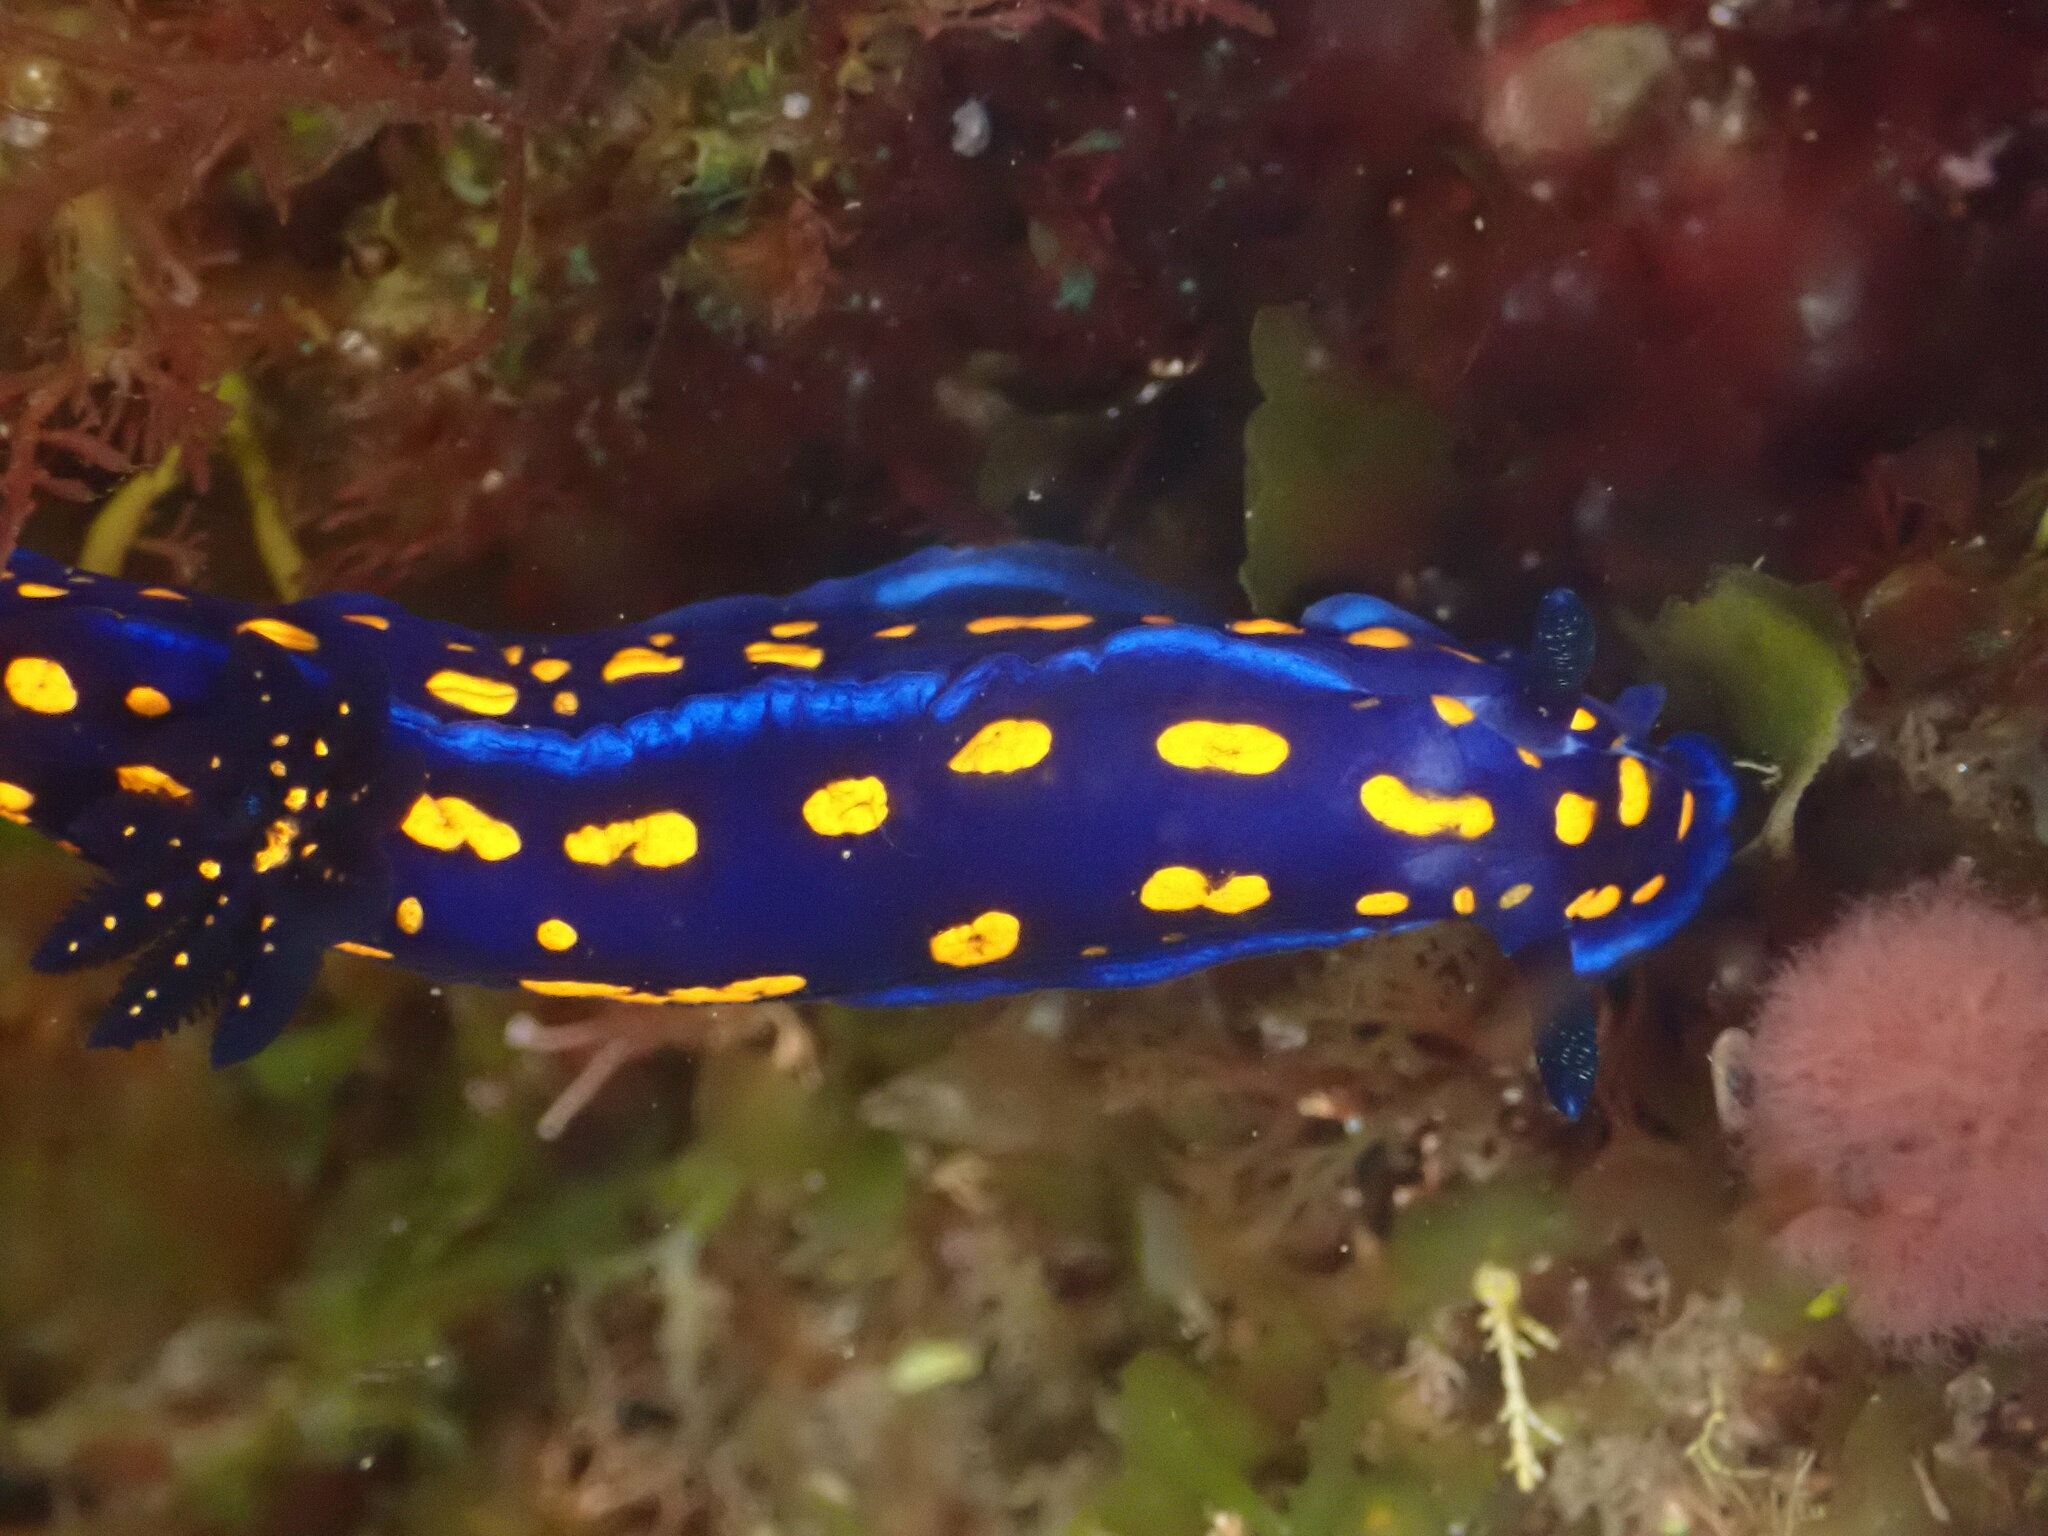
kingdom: Animalia
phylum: Mollusca
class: Gastropoda
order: Nudibranchia
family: Chromodorididae
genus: Felimare
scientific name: Felimare californiensis
